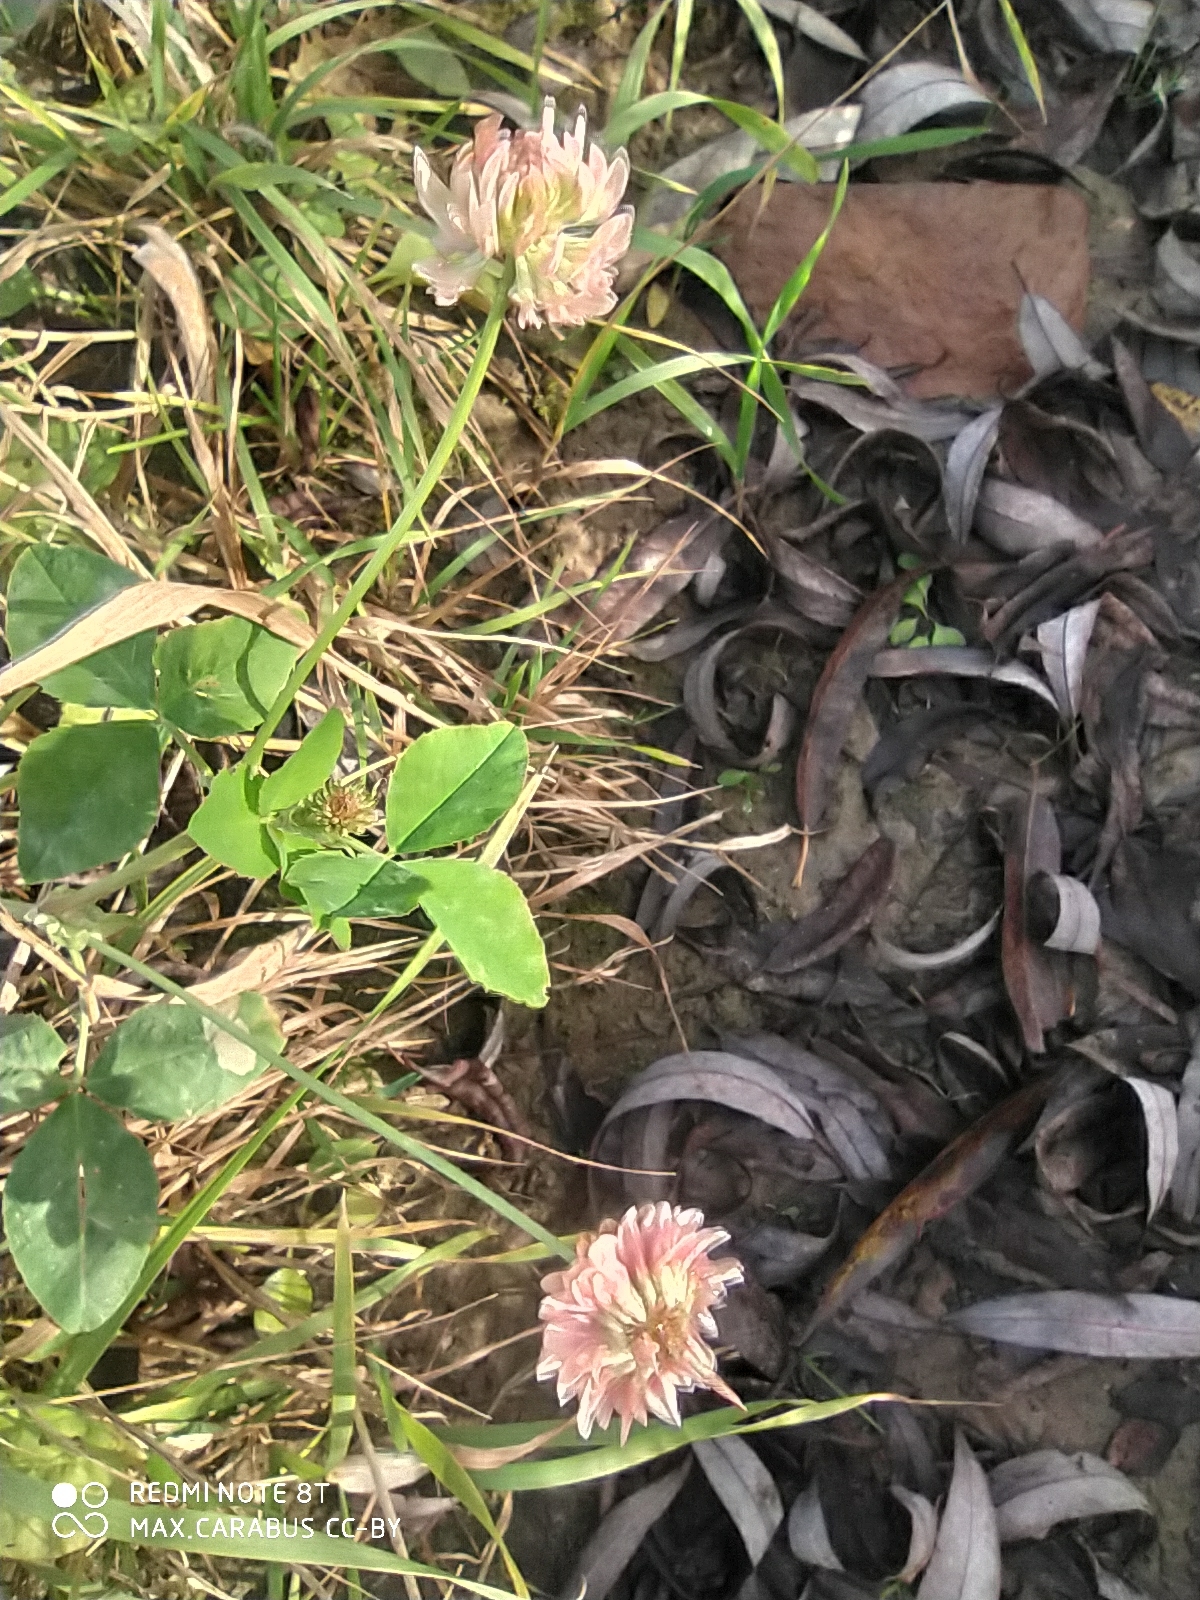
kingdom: Plantae
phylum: Tracheophyta
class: Magnoliopsida
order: Fabales
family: Fabaceae
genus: Trifolium
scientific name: Trifolium hybridum
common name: Alsike clover
